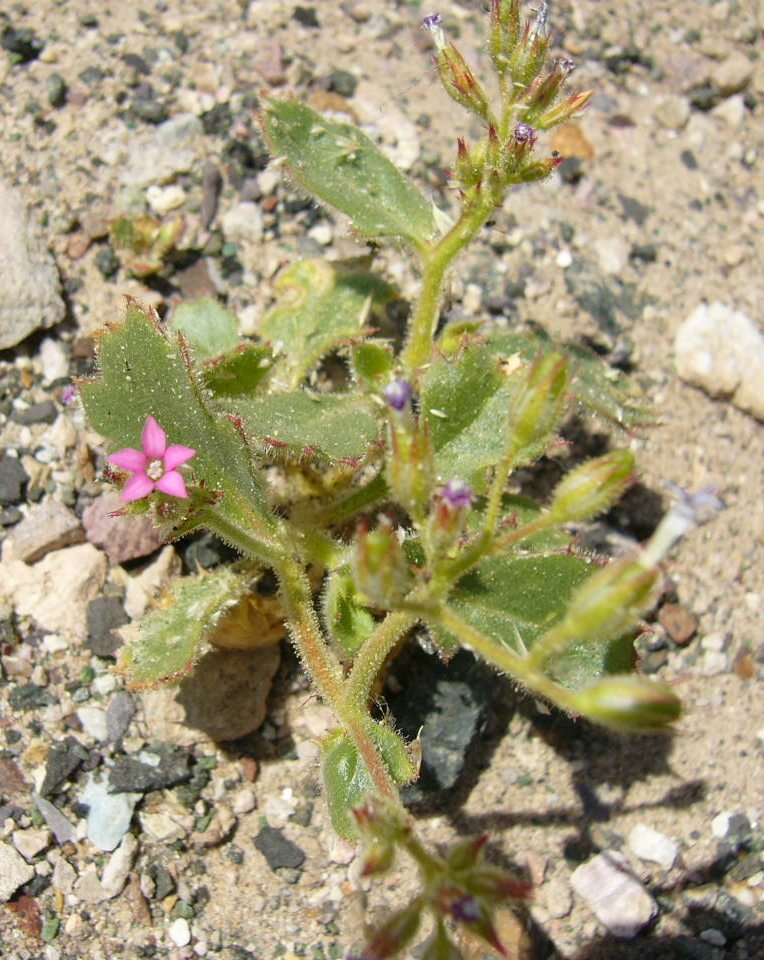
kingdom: Plantae
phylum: Tracheophyta
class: Magnoliopsida
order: Ericales
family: Polemoniaceae
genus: Aliciella
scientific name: Aliciella latifolia
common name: Broad-leaf gilia
